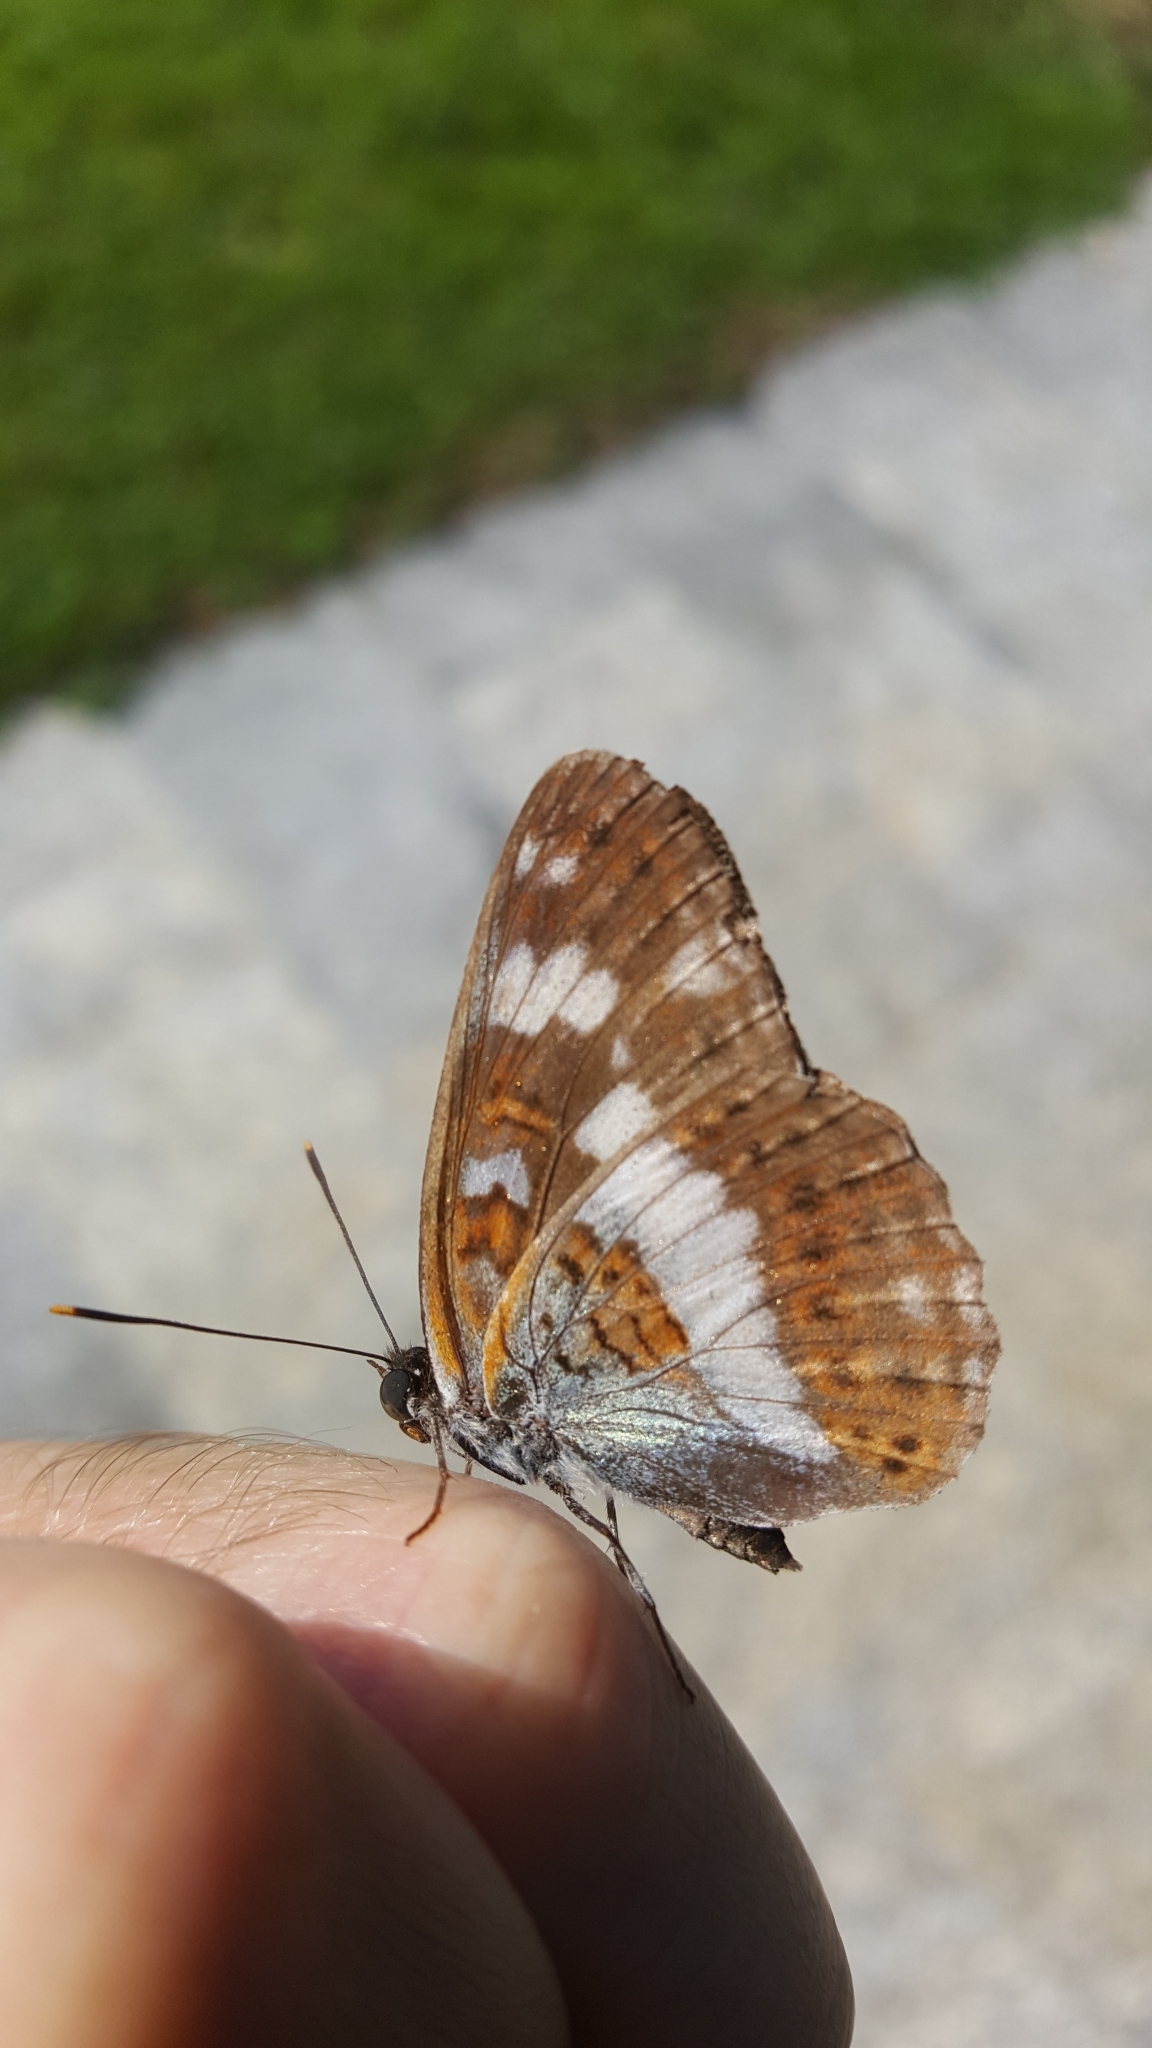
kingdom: Animalia
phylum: Arthropoda
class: Insecta
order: Lepidoptera
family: Nymphalidae
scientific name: Nymphalidae
